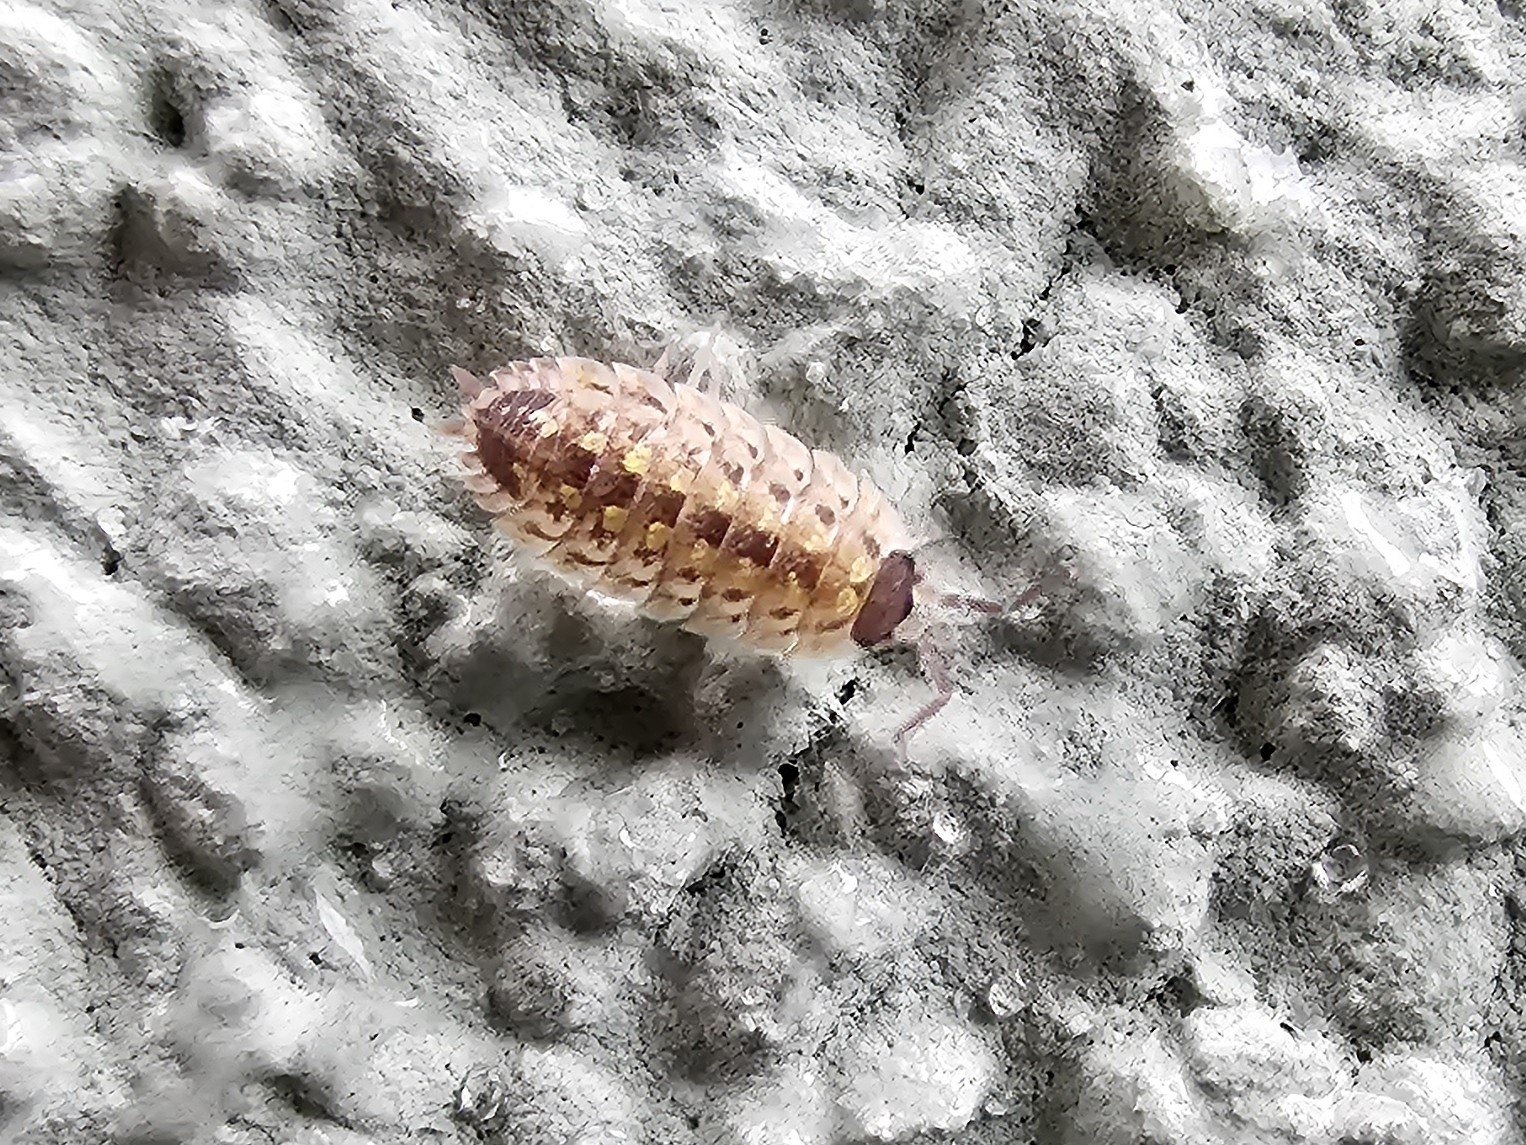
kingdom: Animalia
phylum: Arthropoda
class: Malacostraca
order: Isopoda
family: Porcellionidae
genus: Porcellio
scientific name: Porcellio spinicornis
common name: Painted woodlouse
